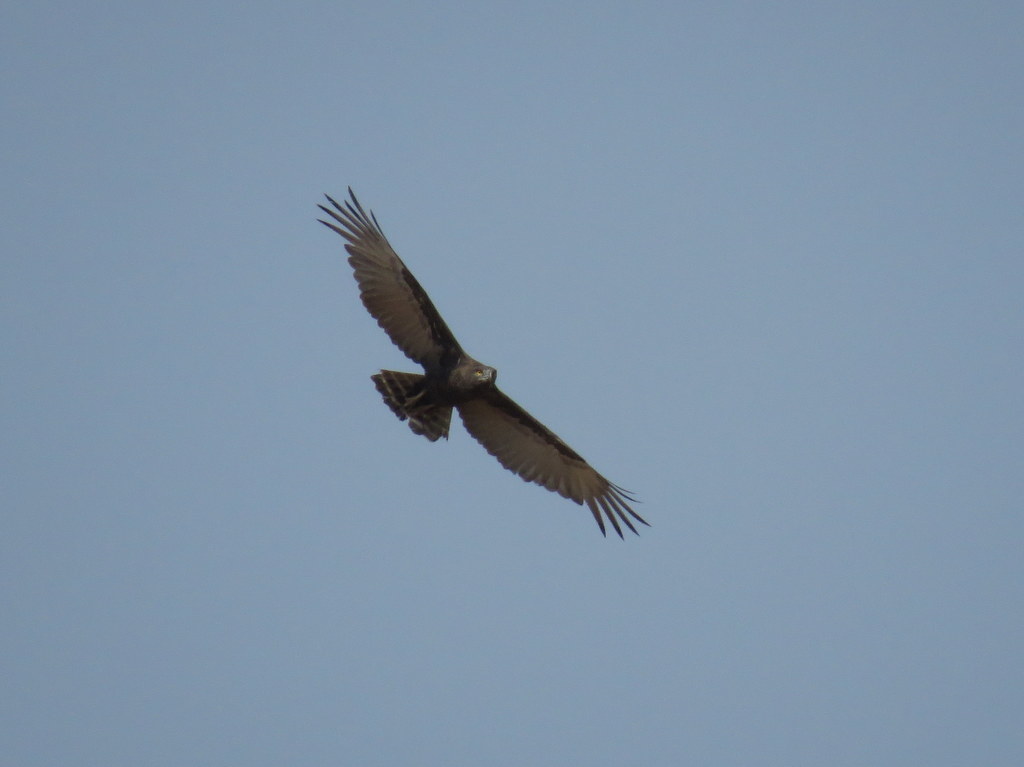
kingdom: Animalia
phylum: Chordata
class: Aves
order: Accipitriformes
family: Accipitridae
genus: Circaetus
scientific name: Circaetus cinereus
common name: Brown snake eagle
